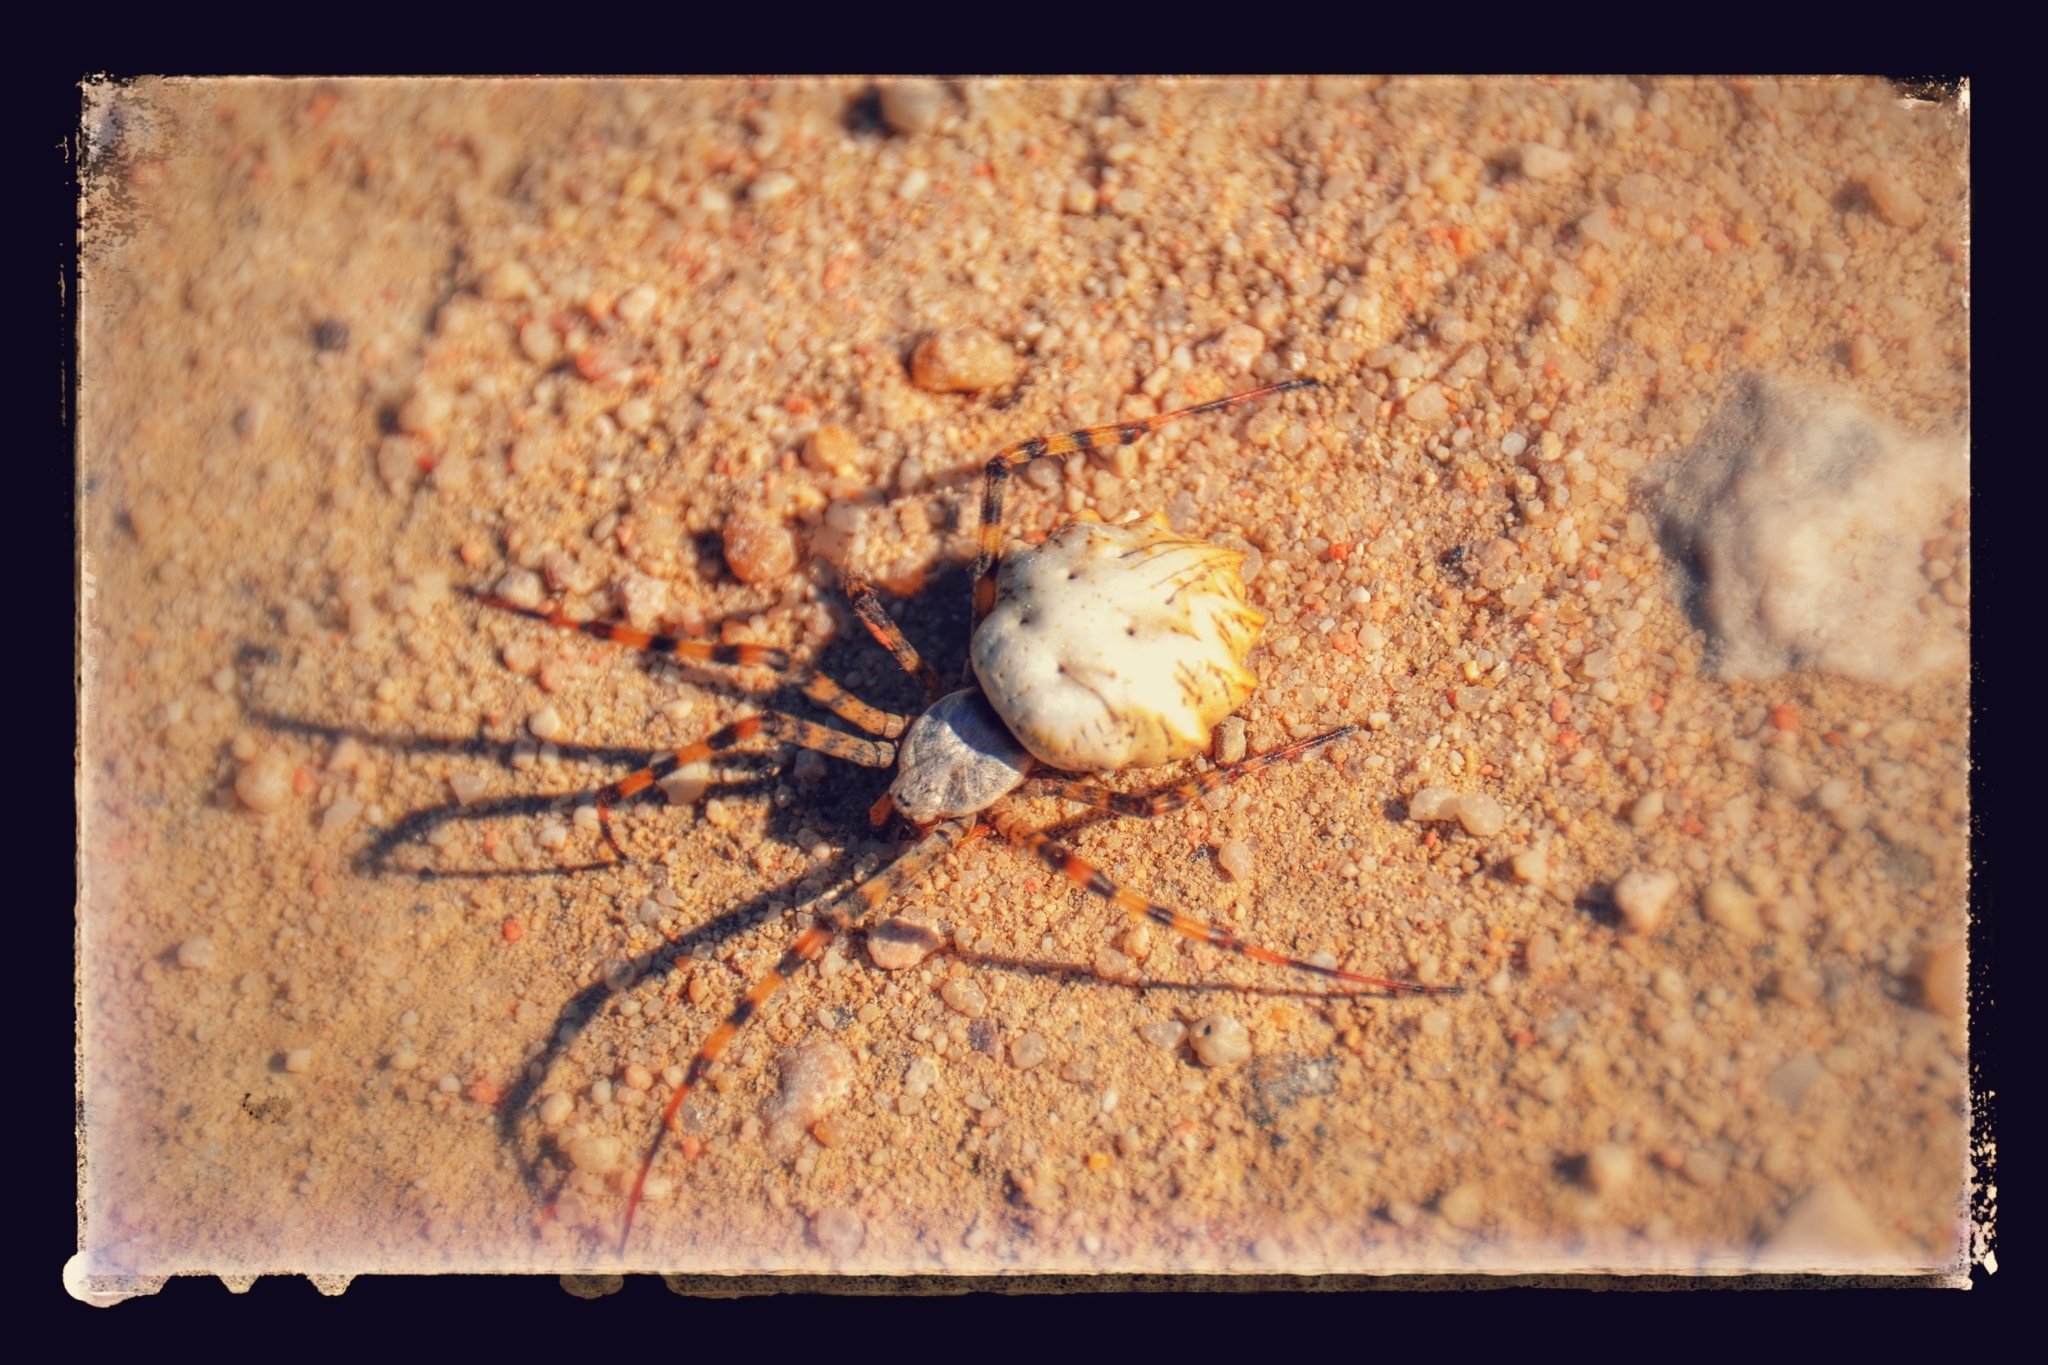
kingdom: Animalia
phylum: Arthropoda
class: Arachnida
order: Araneae
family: Araneidae
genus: Argiope
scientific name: Argiope lobata
